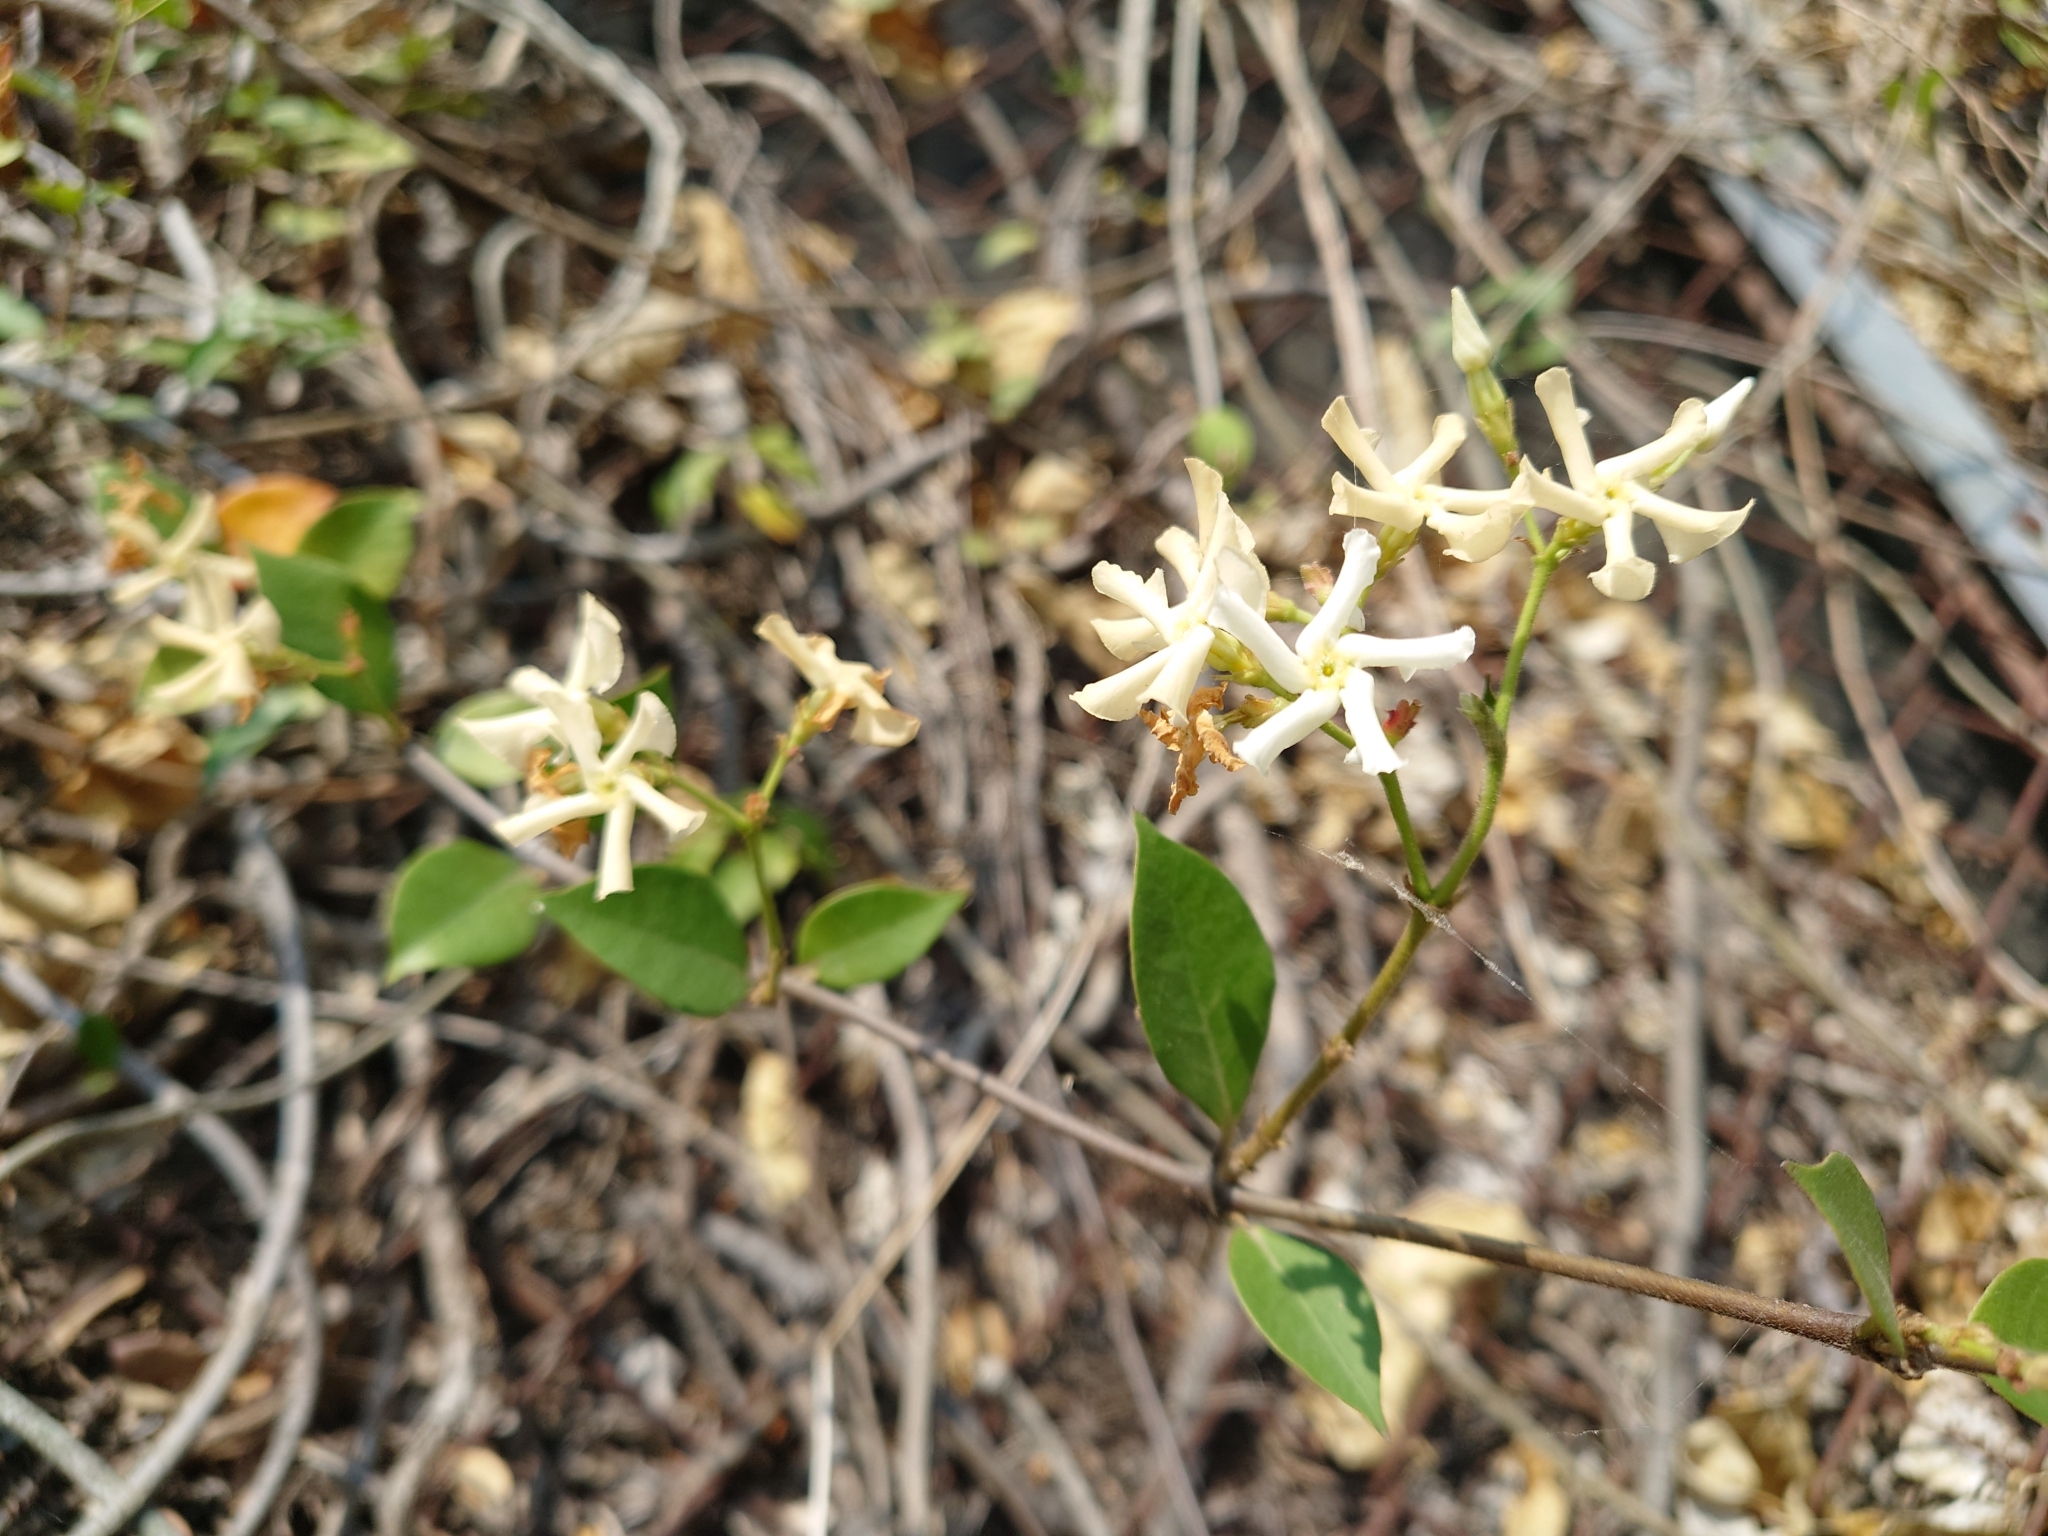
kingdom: Plantae
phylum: Tracheophyta
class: Magnoliopsida
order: Gentianales
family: Apocynaceae
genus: Trachelospermum
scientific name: Trachelospermum jasminoides
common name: Confederate jasmine
